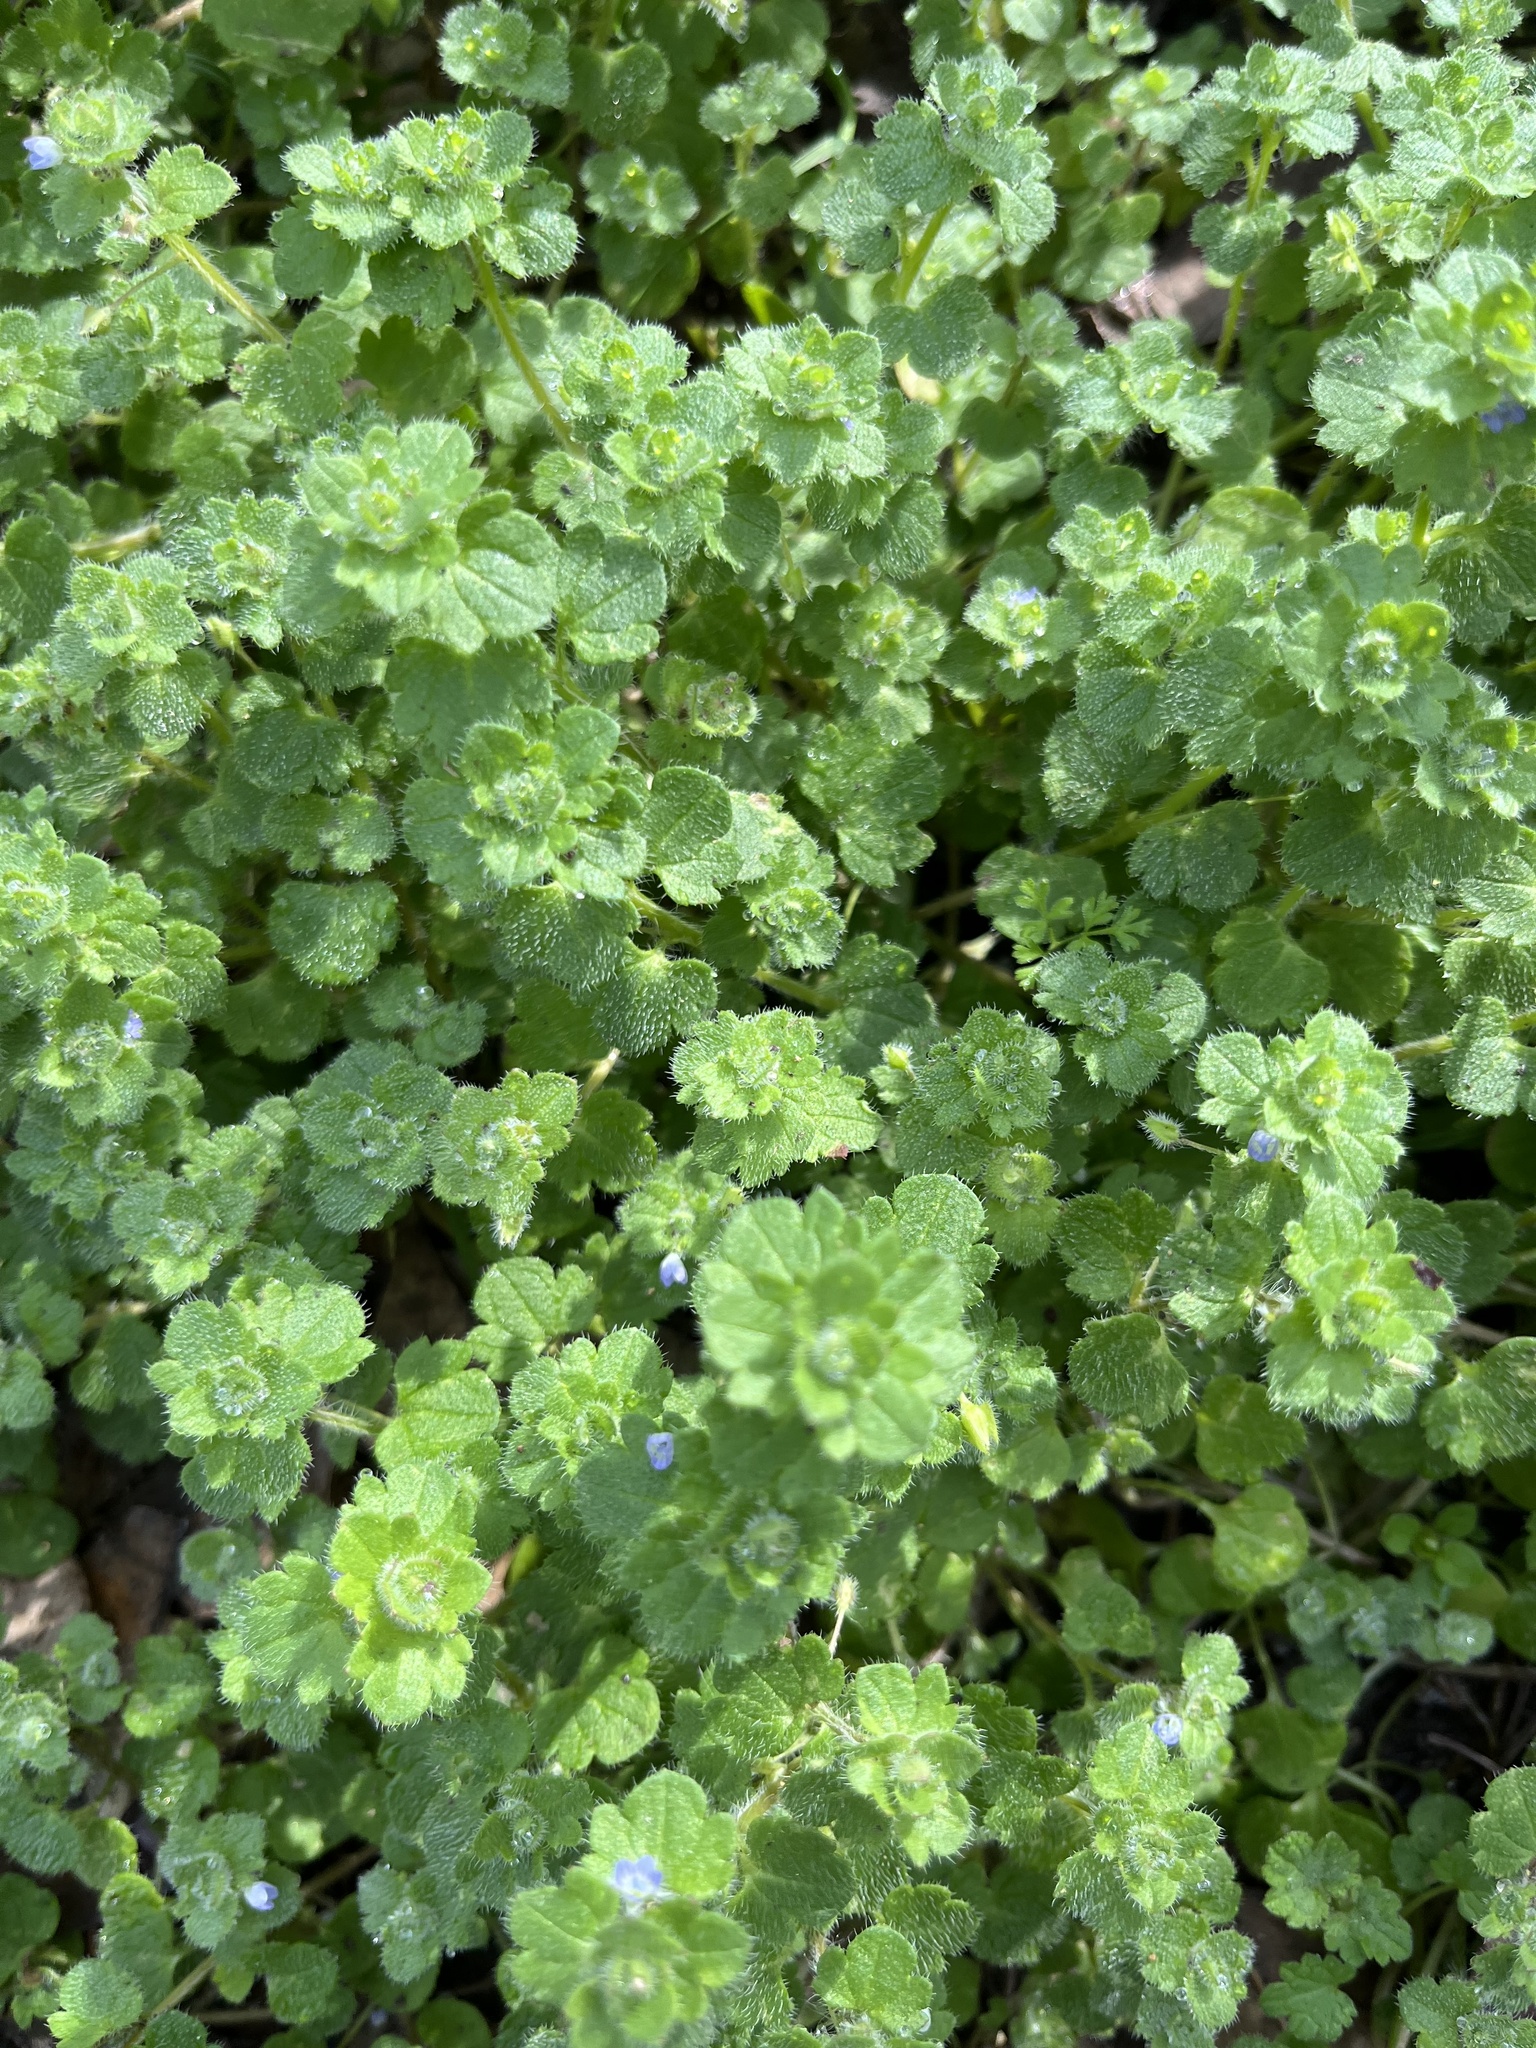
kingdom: Plantae
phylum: Tracheophyta
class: Magnoliopsida
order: Lamiales
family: Plantaginaceae
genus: Veronica
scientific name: Veronica hederifolia
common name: Ivy-leaved speedwell
